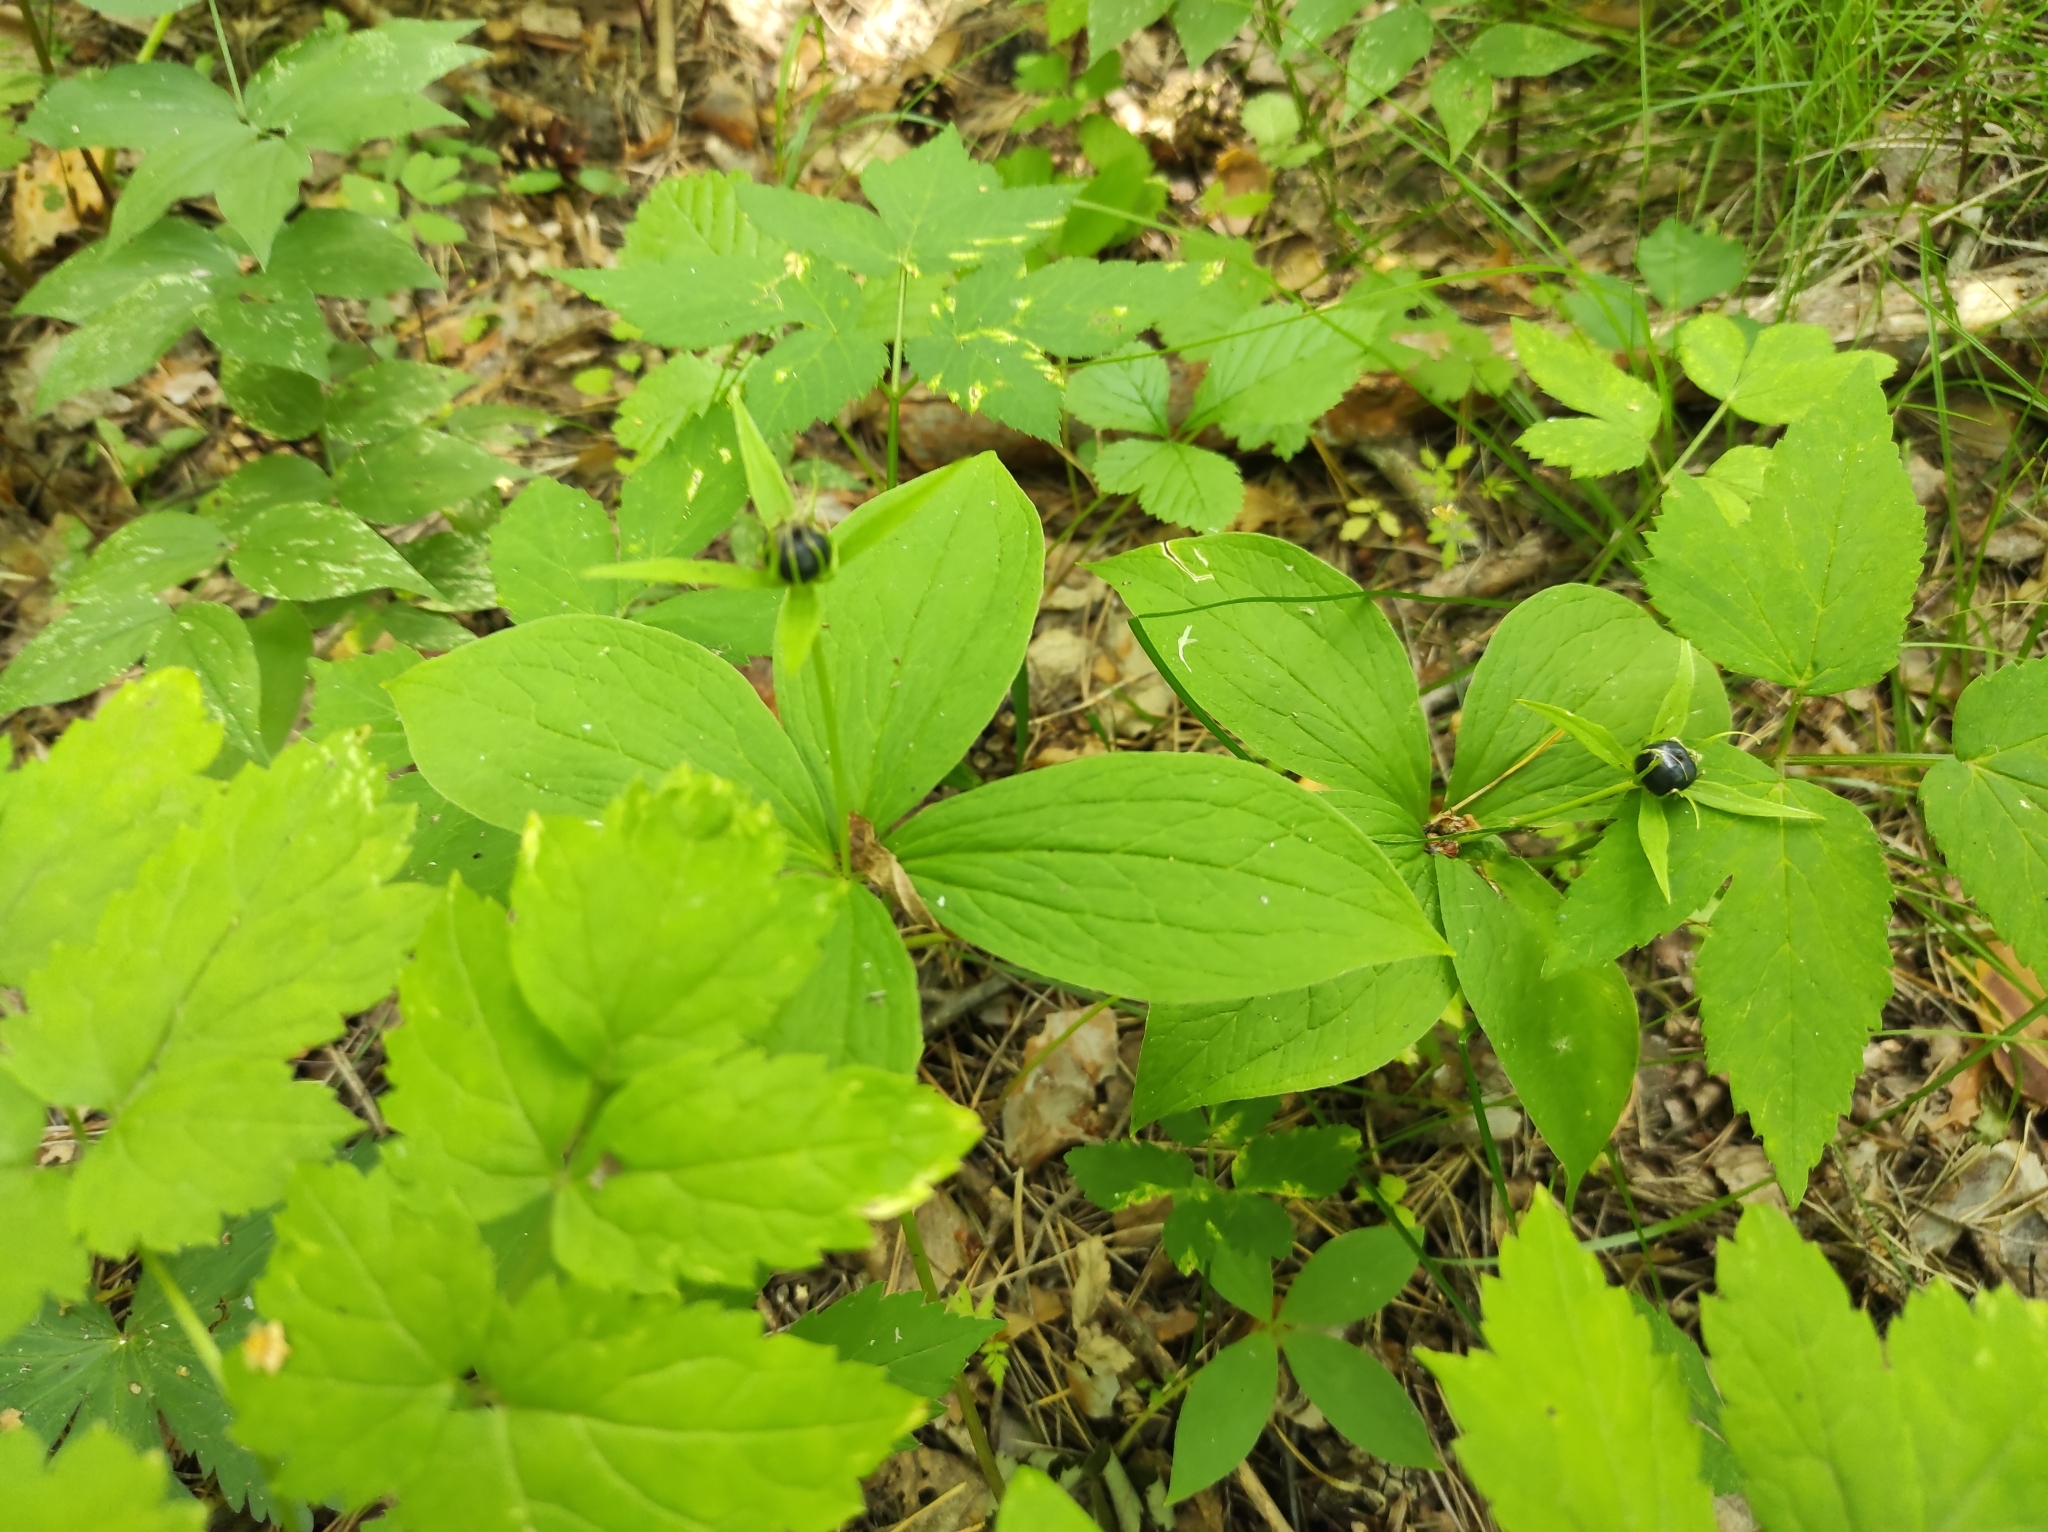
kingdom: Plantae
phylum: Tracheophyta
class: Liliopsida
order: Liliales
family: Melanthiaceae
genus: Paris
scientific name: Paris quadrifolia
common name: Herb-paris
